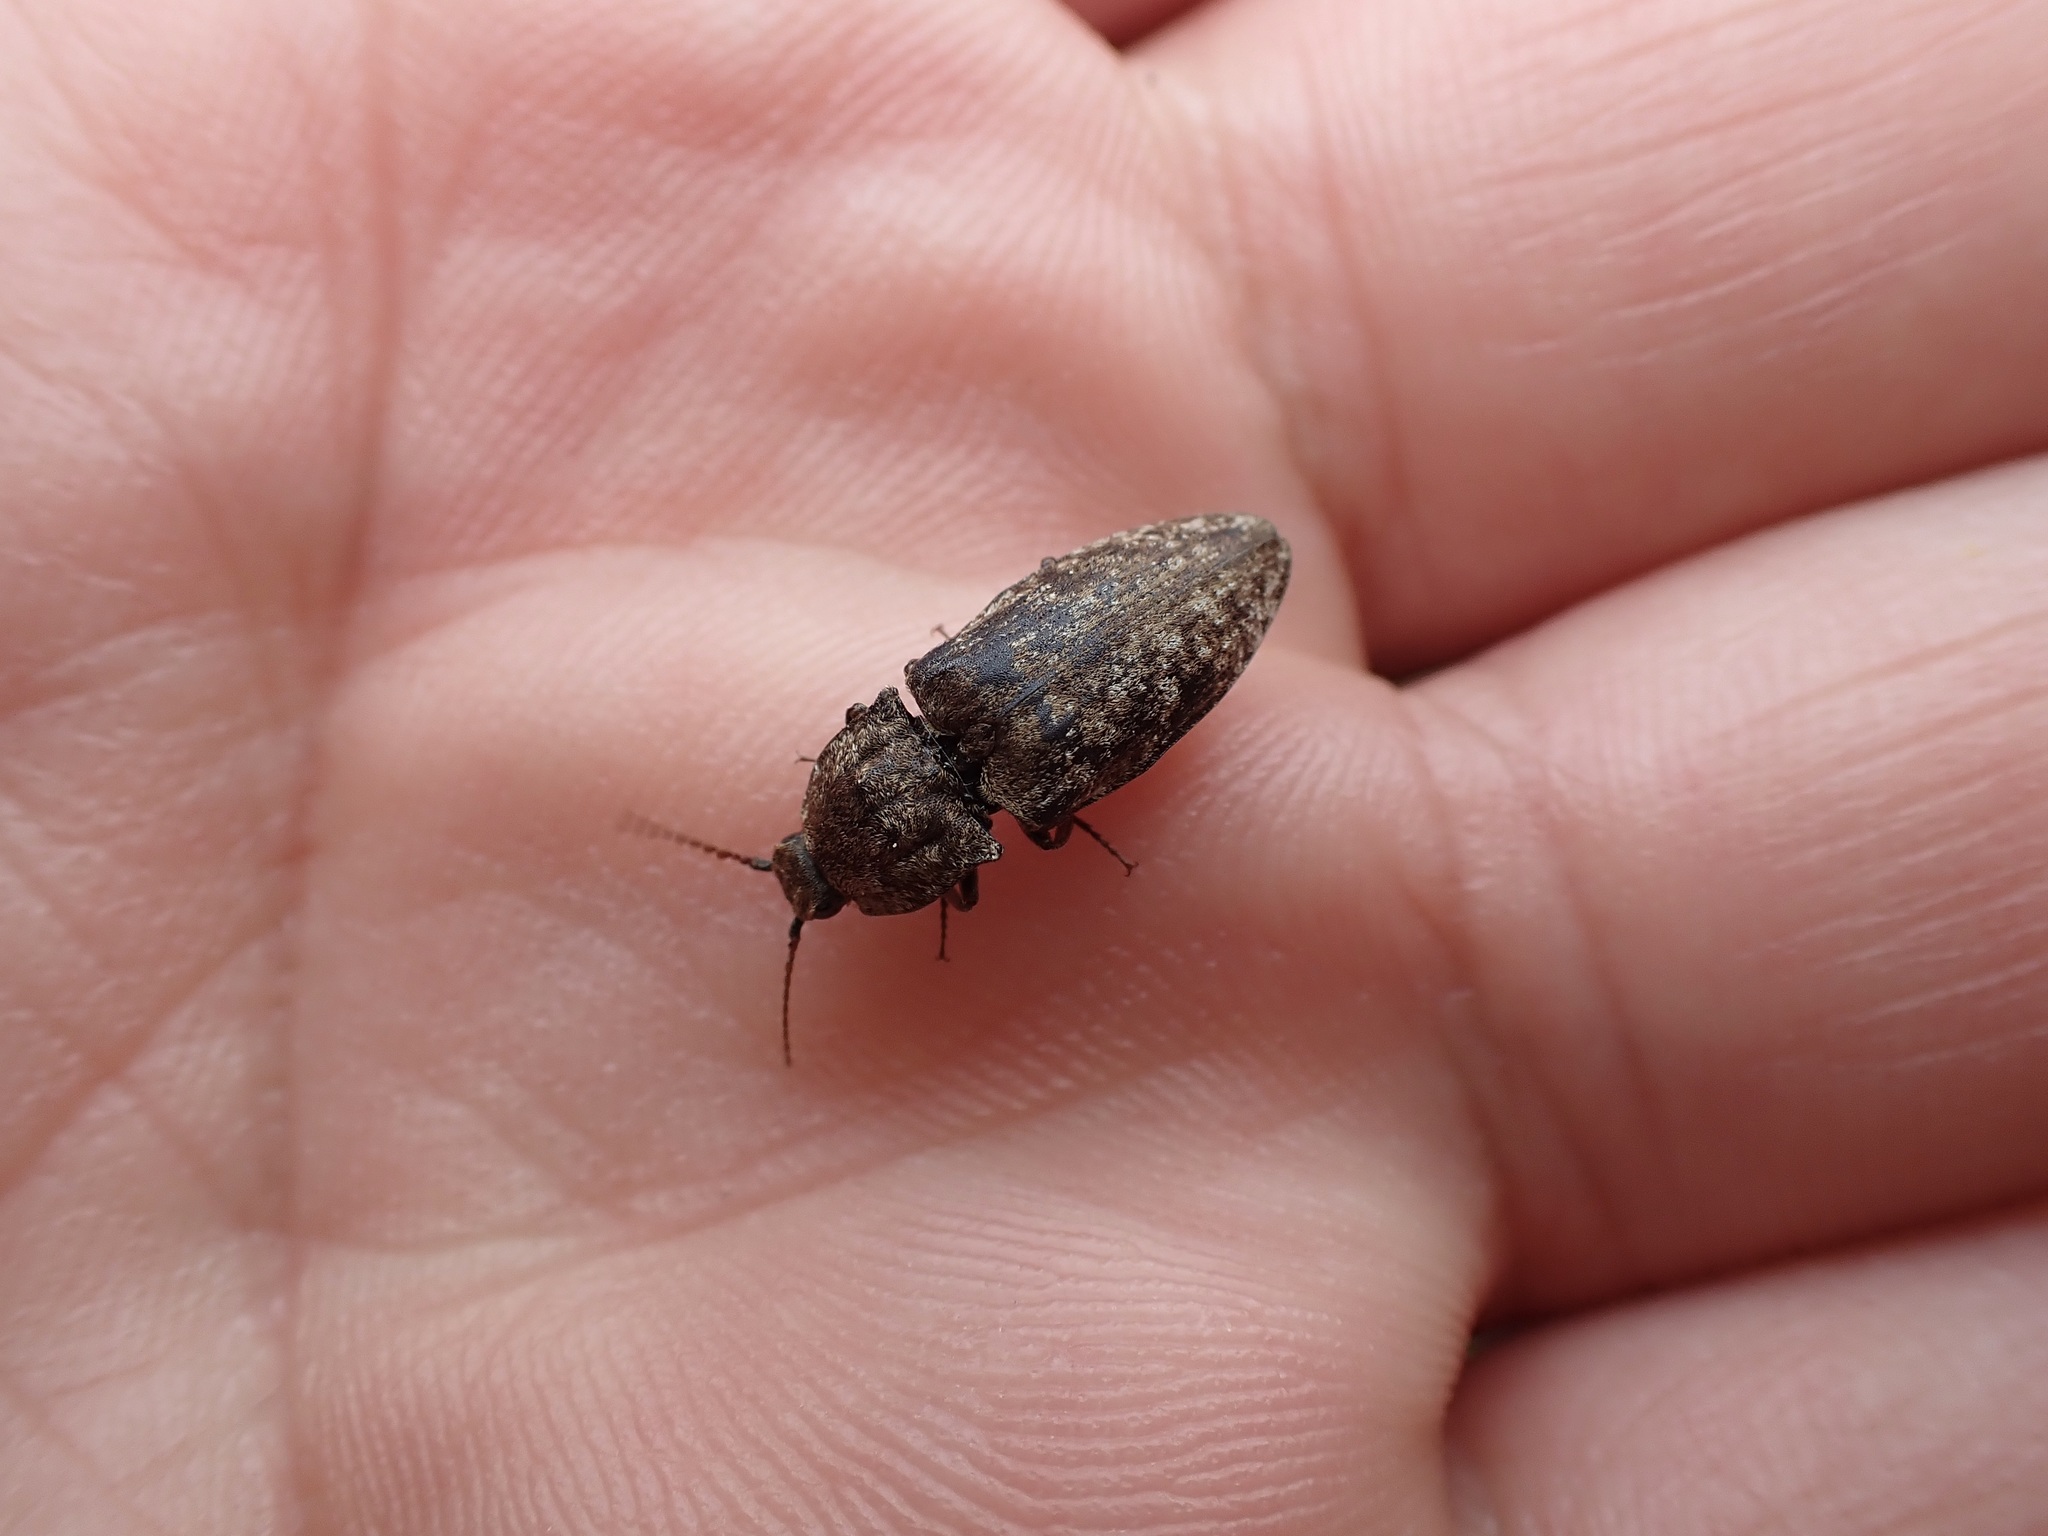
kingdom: Animalia
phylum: Arthropoda
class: Insecta
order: Coleoptera
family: Elateridae
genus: Agrypnus
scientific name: Agrypnus murinus
